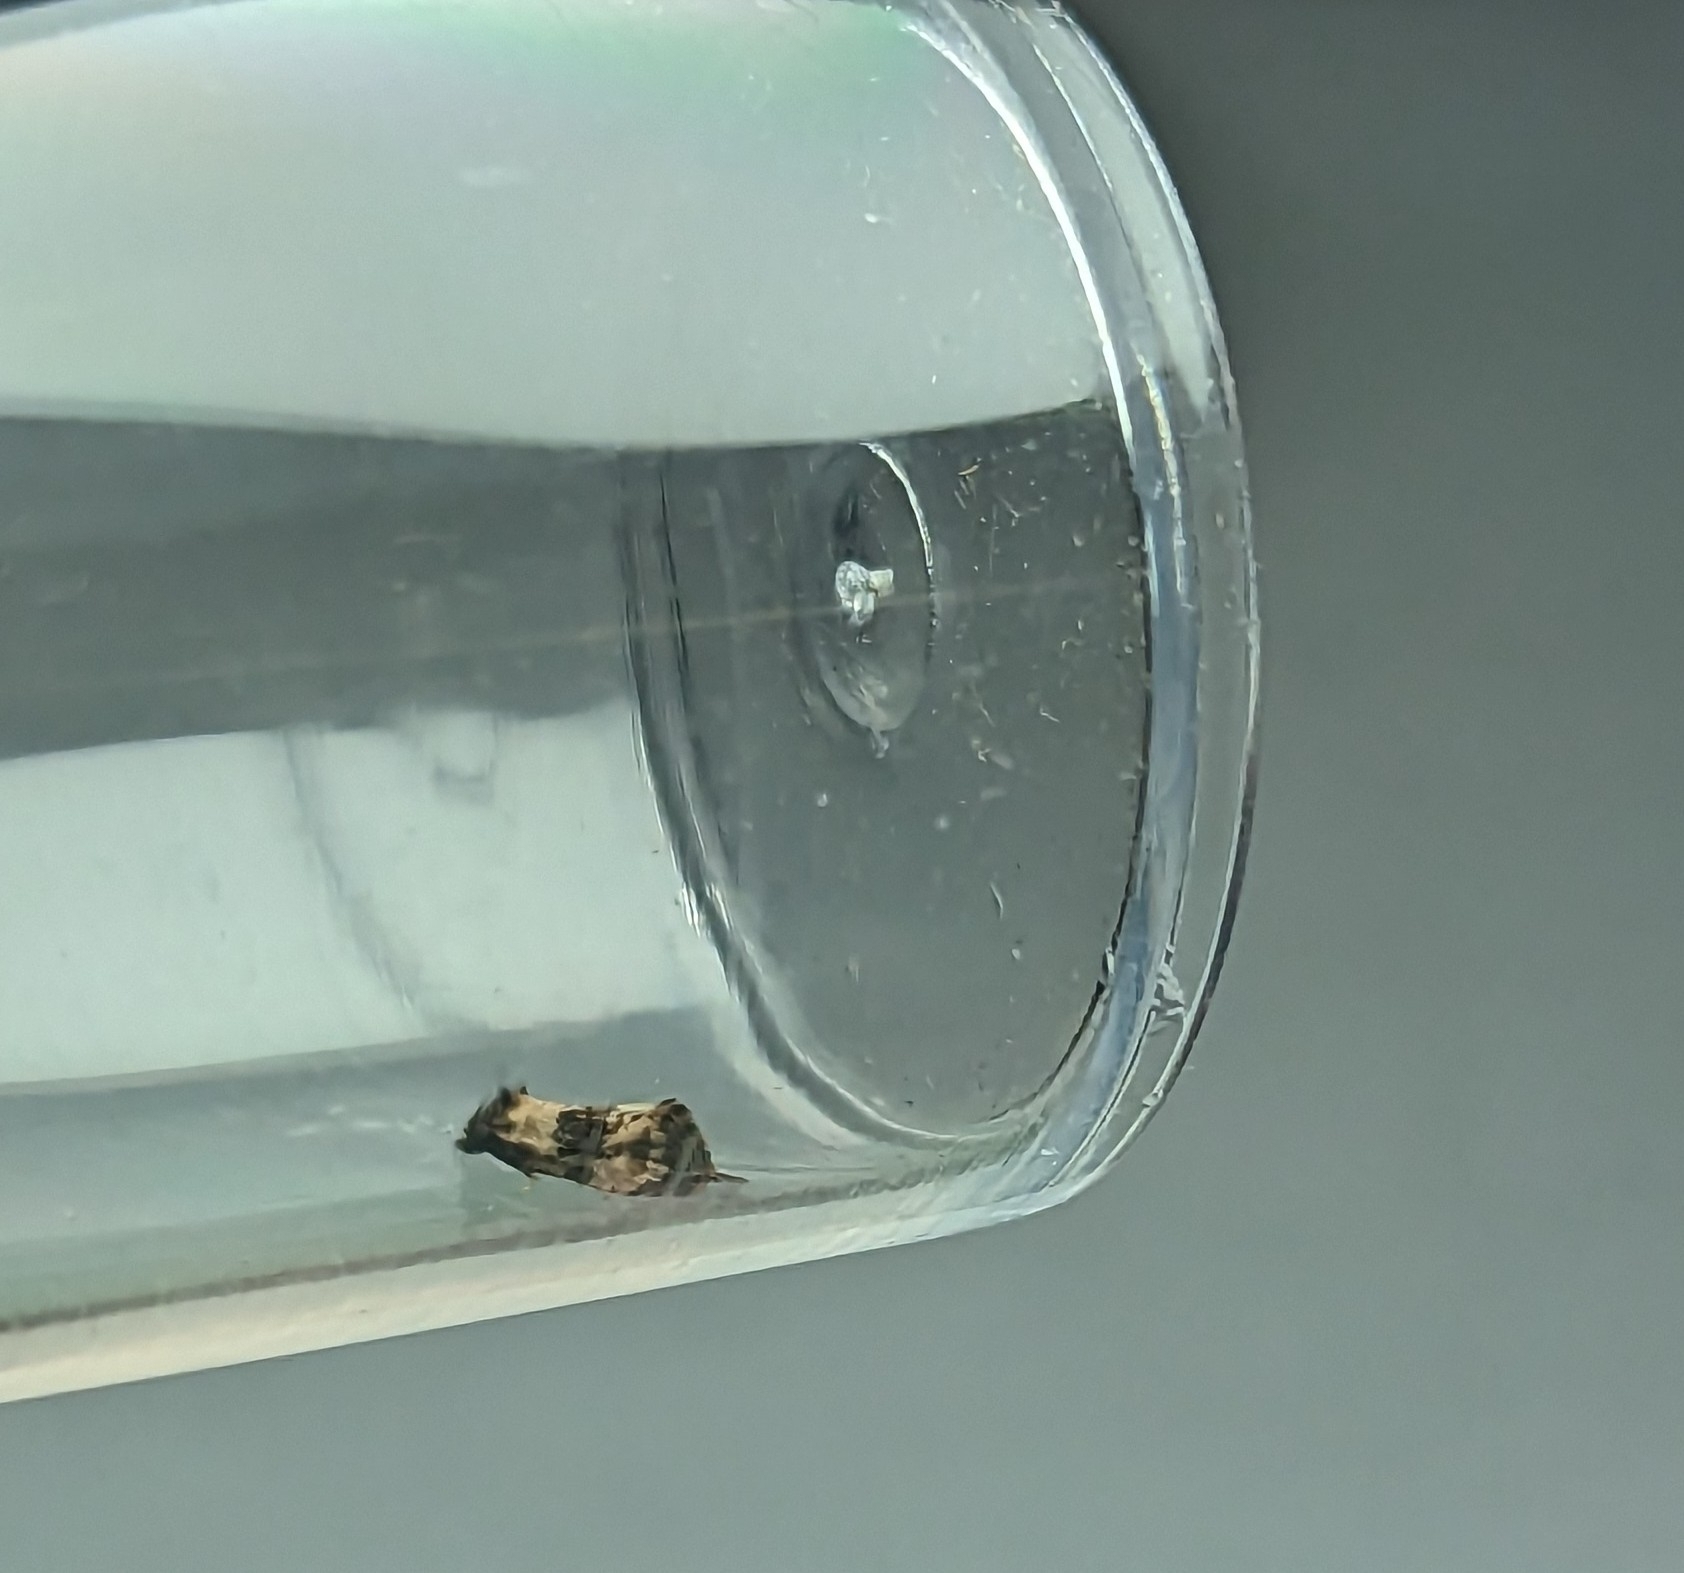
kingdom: Animalia
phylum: Arthropoda
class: Insecta
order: Lepidoptera
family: Tortricidae
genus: Cochylis
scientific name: Cochylis atricapitana
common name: Tortricid moth
